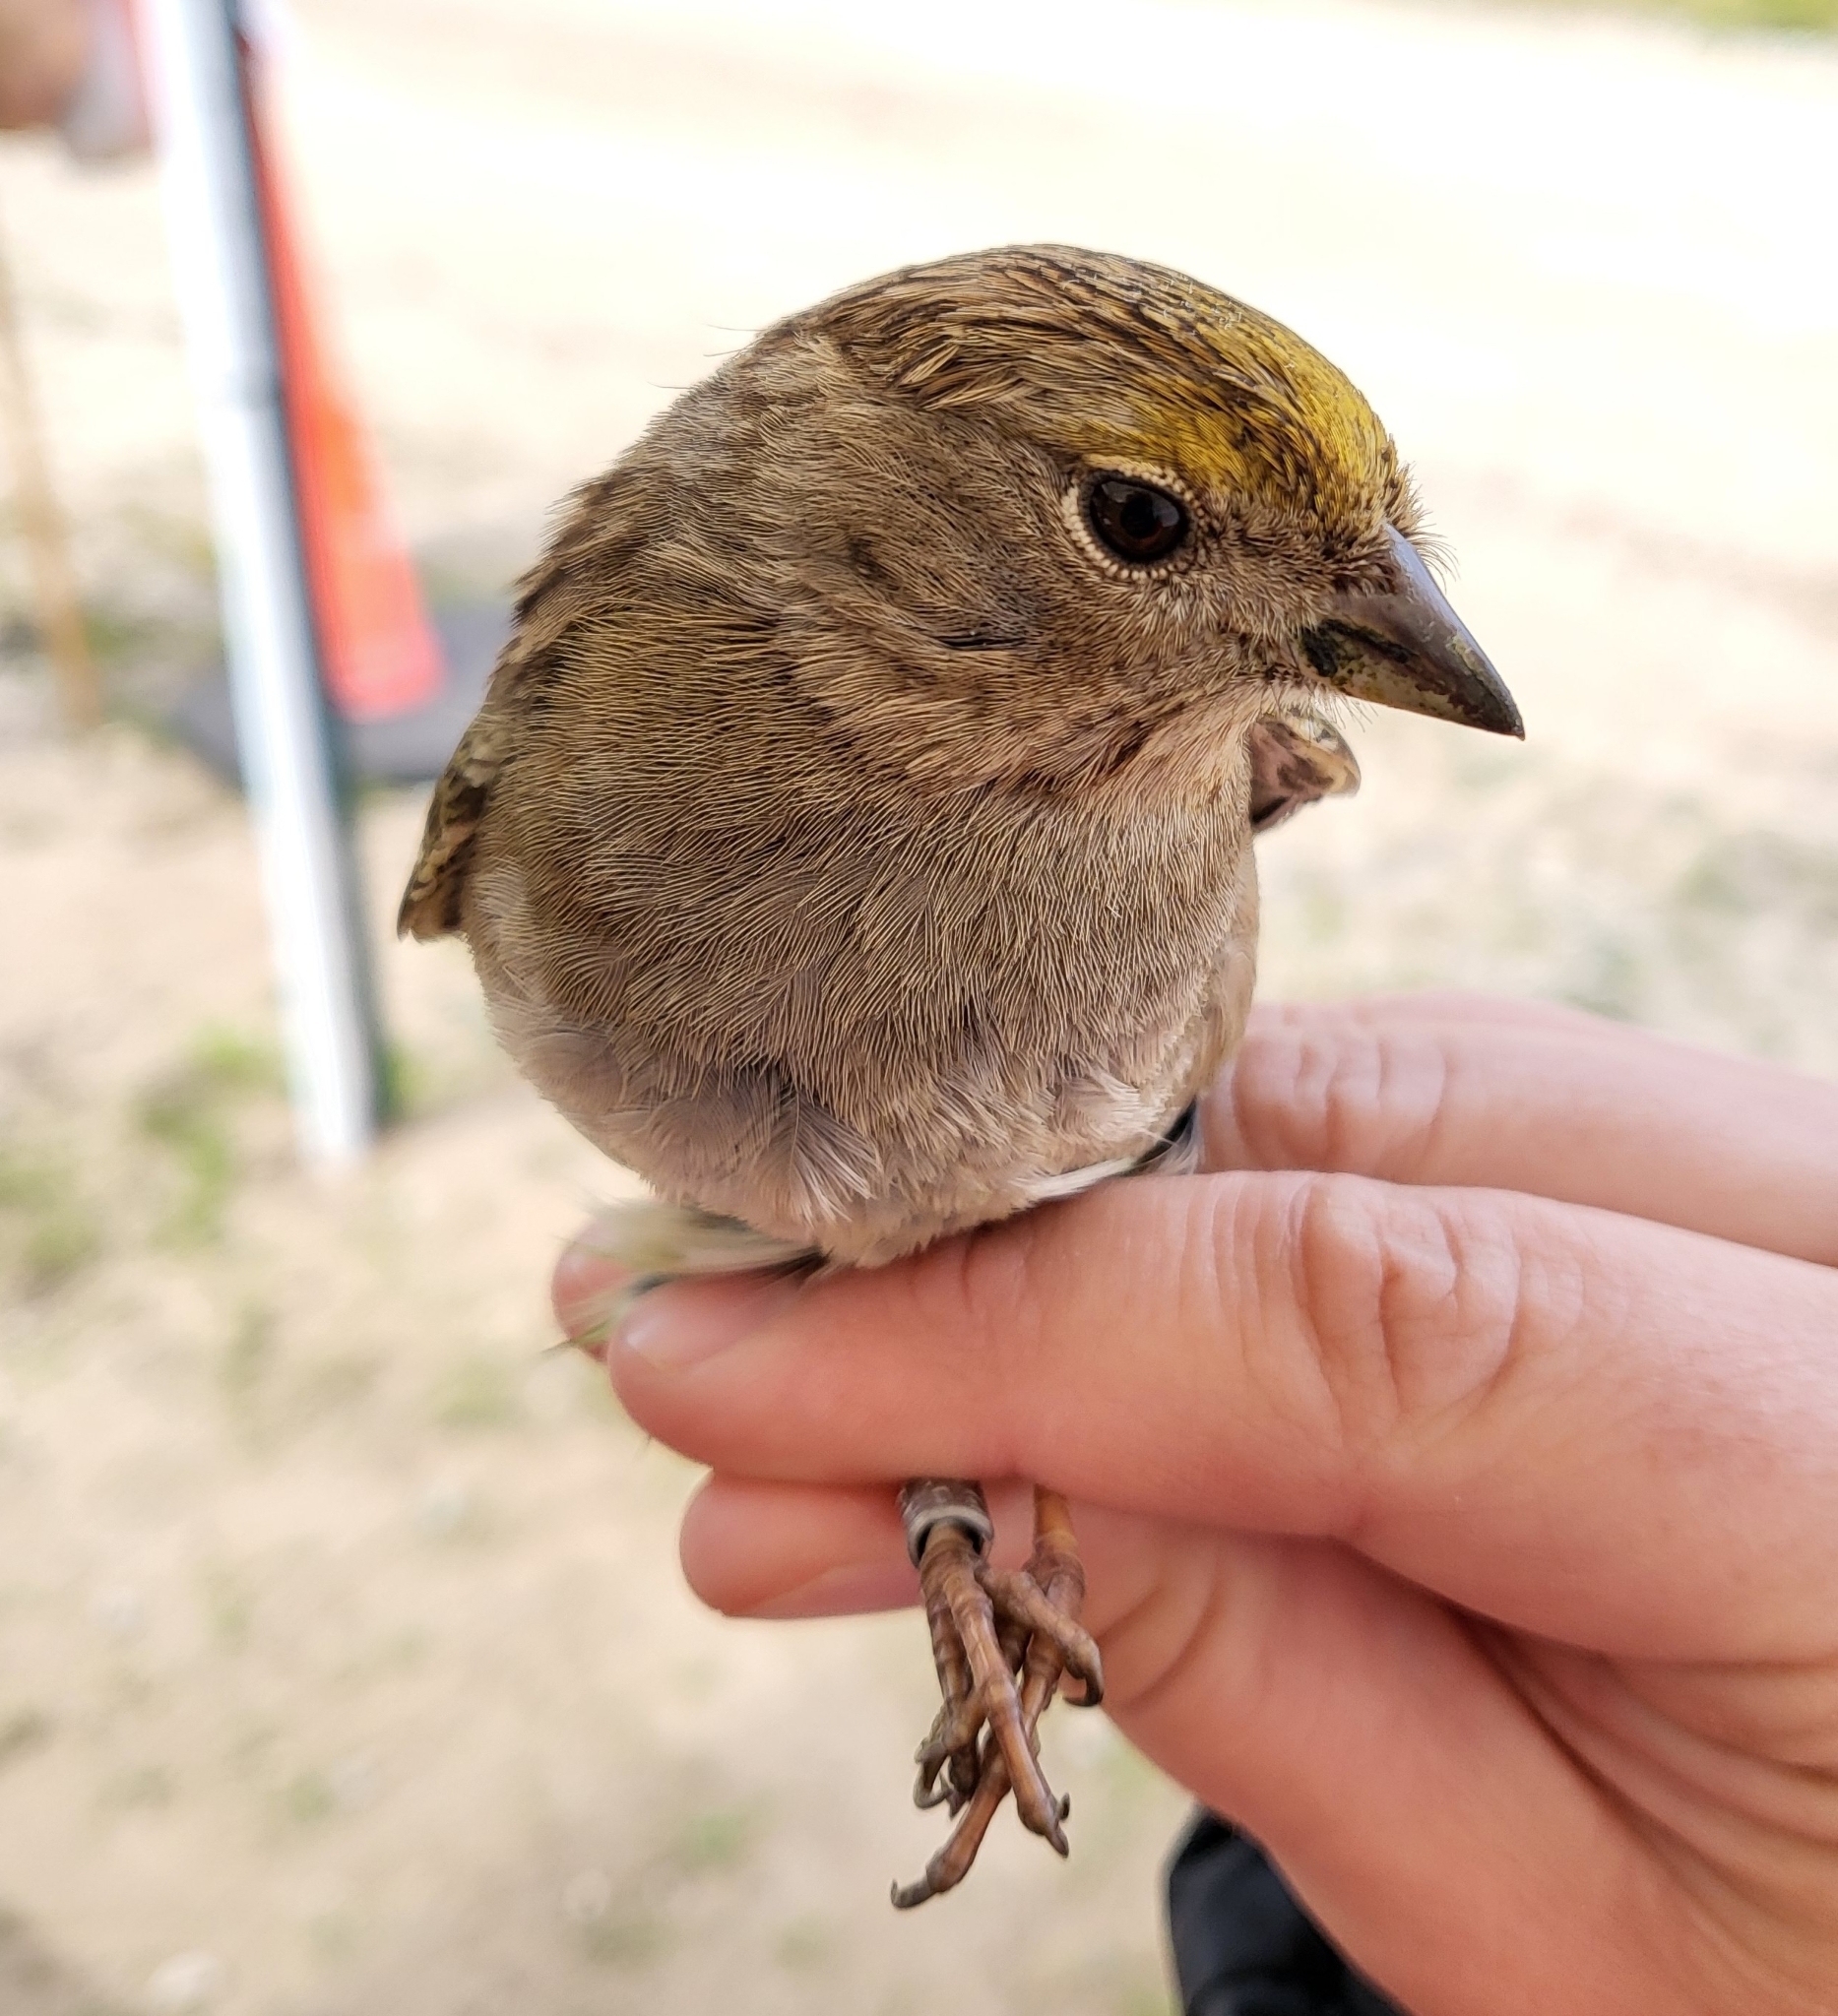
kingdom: Animalia
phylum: Chordata
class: Aves
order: Passeriformes
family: Passerellidae
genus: Zonotrichia
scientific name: Zonotrichia atricapilla
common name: Golden-crowned sparrow
